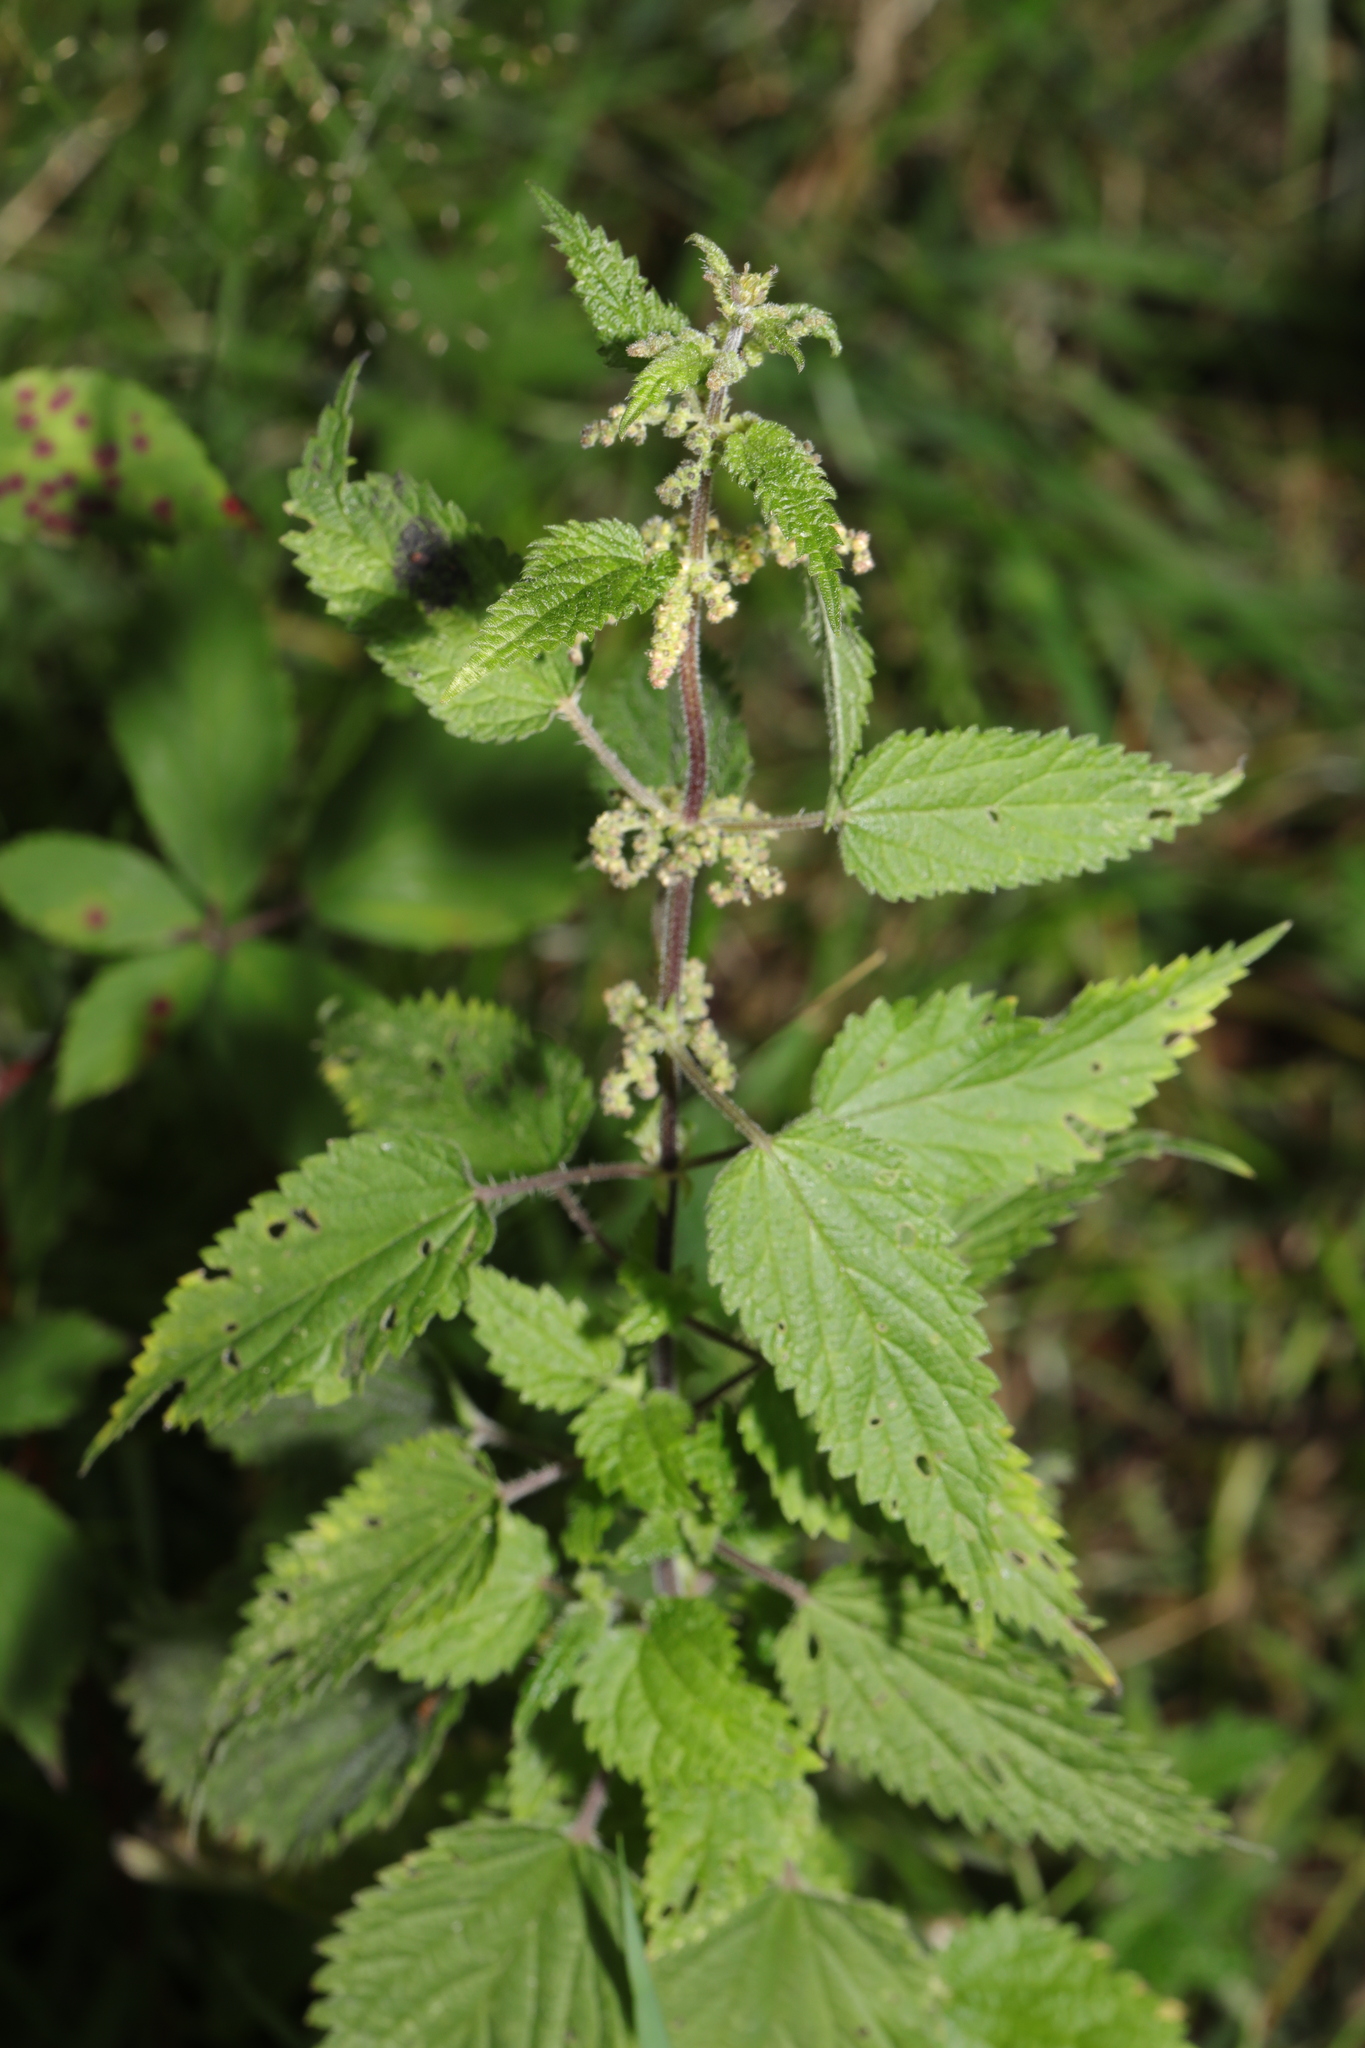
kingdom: Plantae
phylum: Tracheophyta
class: Magnoliopsida
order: Rosales
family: Urticaceae
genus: Urtica
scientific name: Urtica dioica
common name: Common nettle
